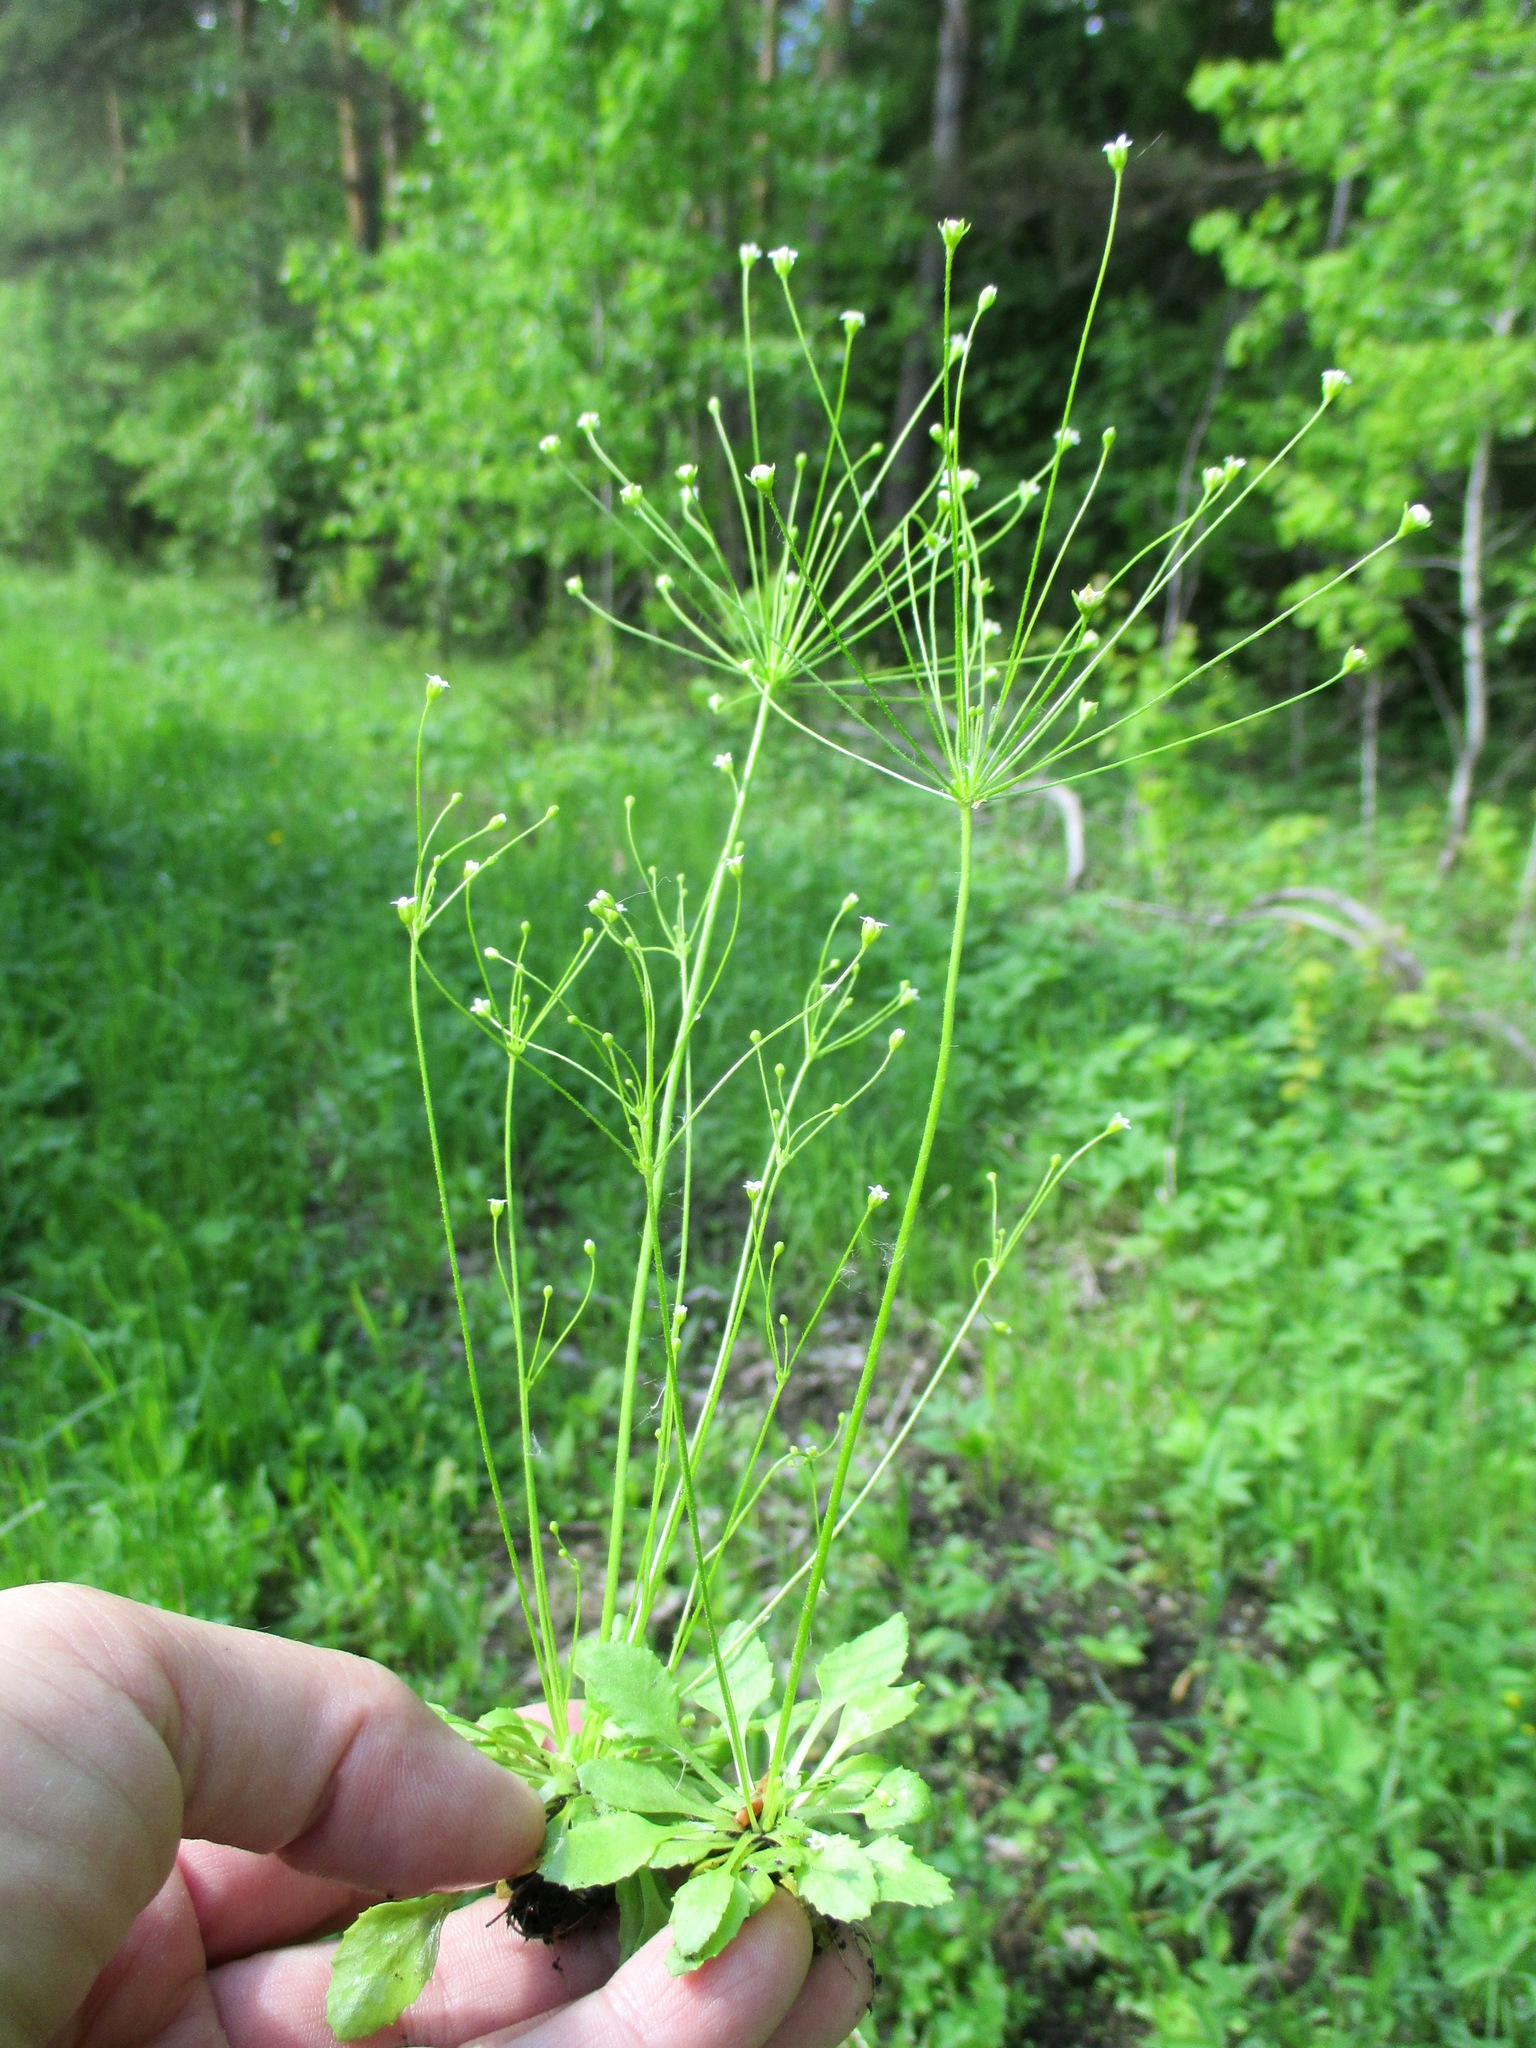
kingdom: Plantae
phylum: Tracheophyta
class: Magnoliopsida
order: Ericales
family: Primulaceae
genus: Androsace
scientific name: Androsace filiformis
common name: Filiform rock jasmine
